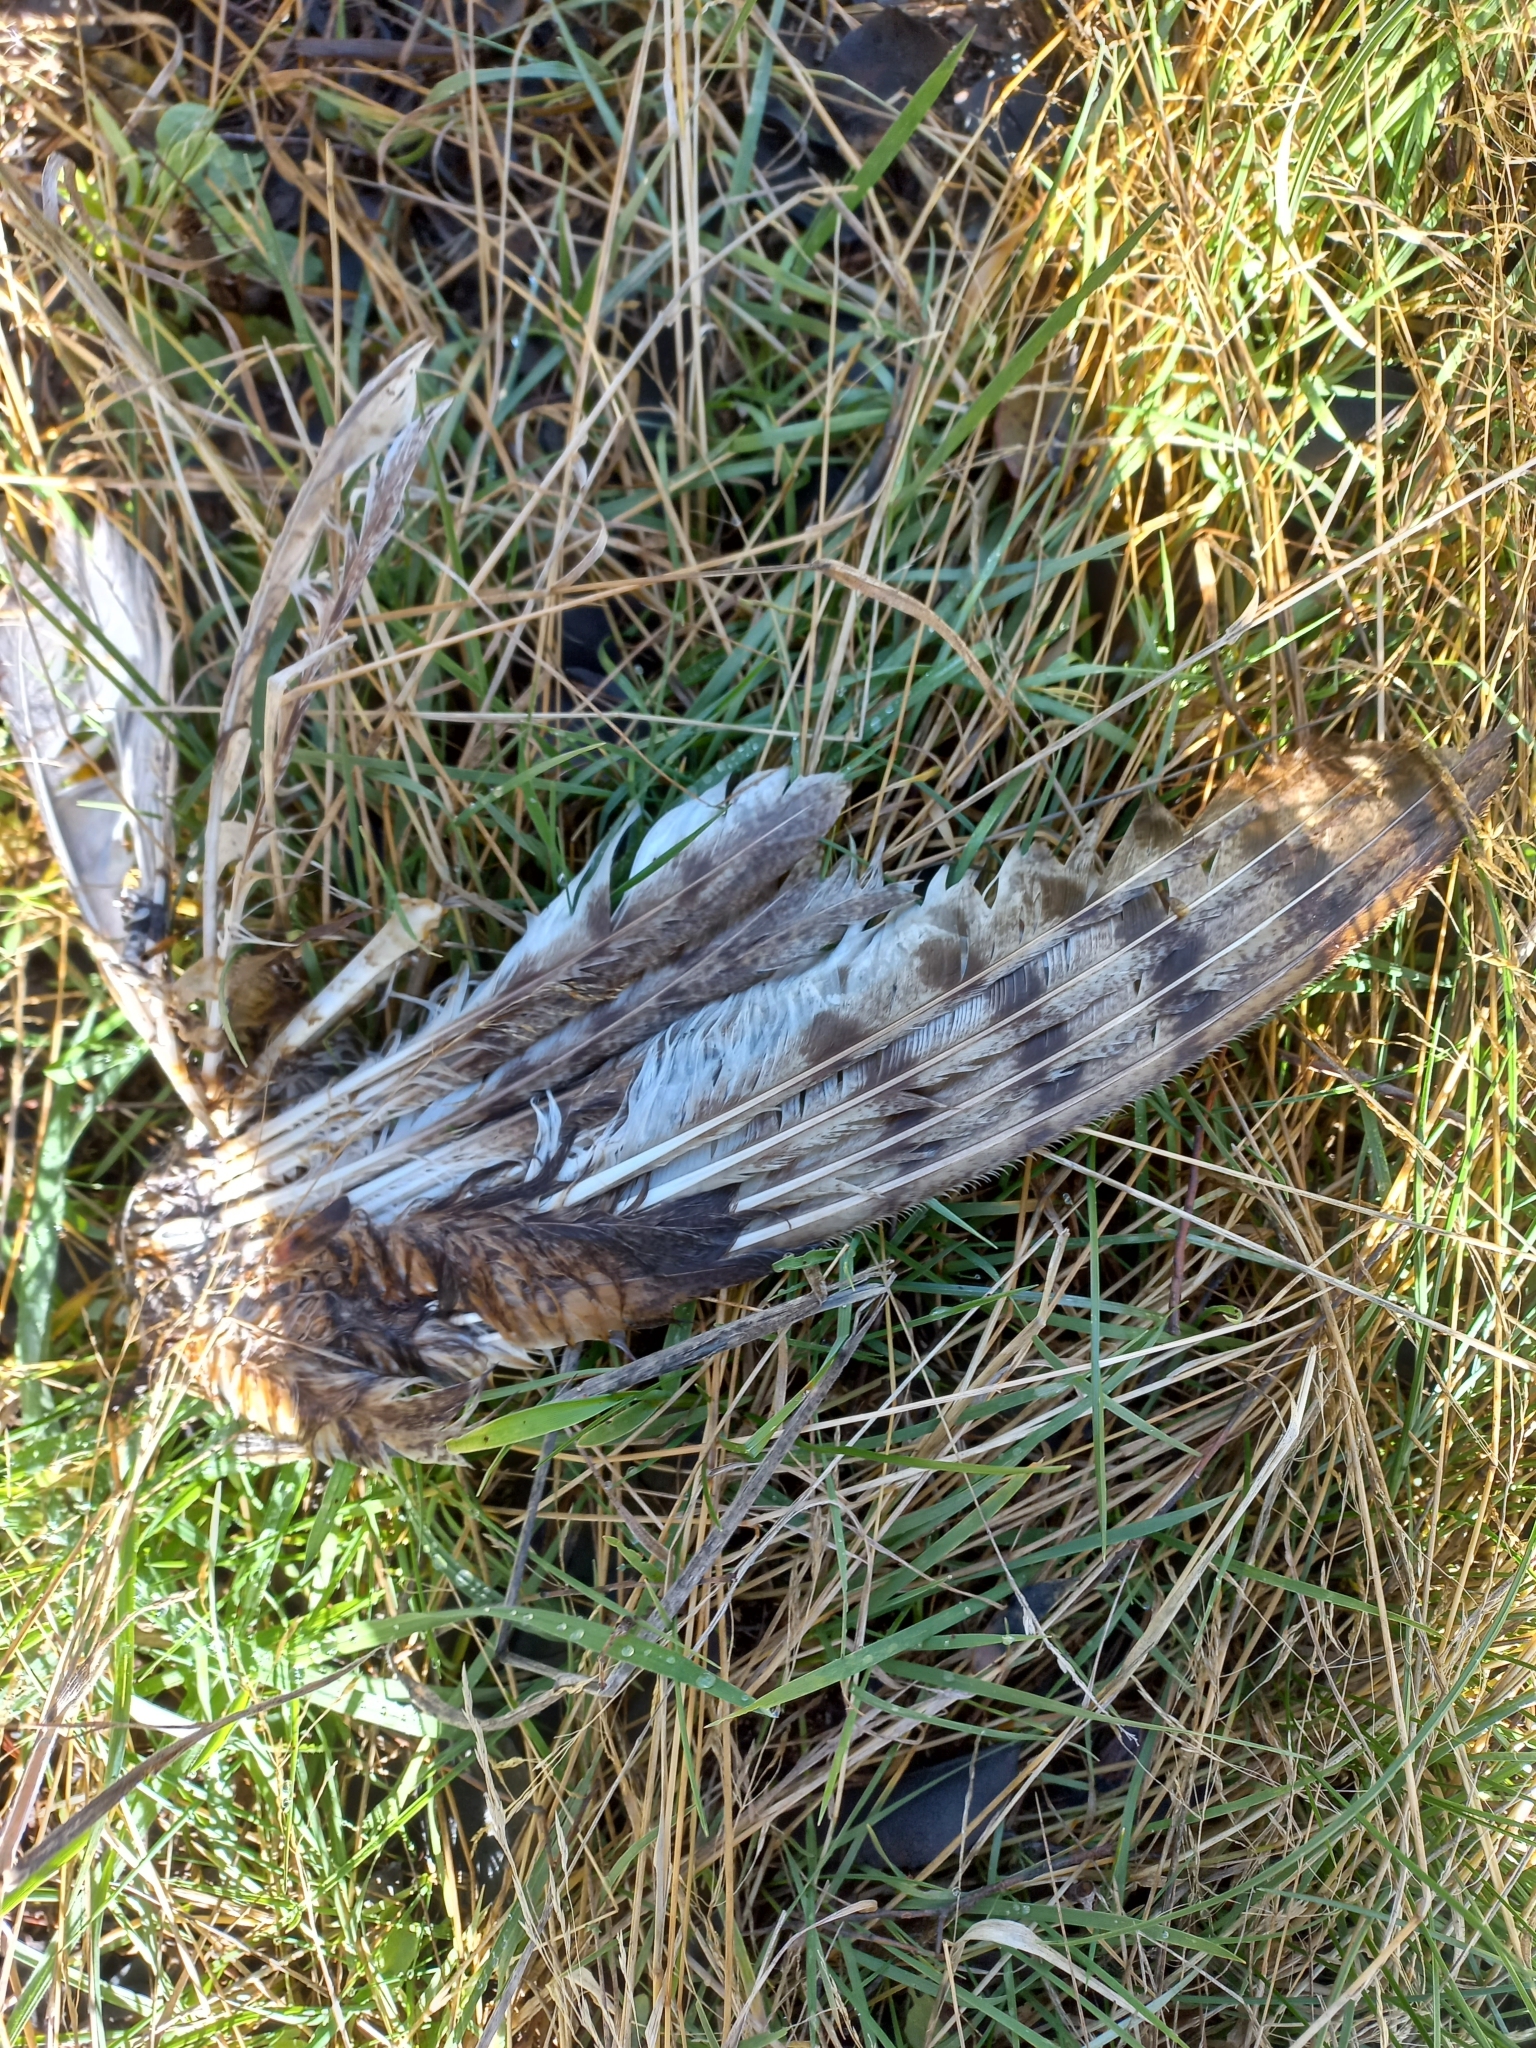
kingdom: Animalia
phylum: Chordata
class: Aves
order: Strigiformes
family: Tytonidae
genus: Tyto
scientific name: Tyto alba
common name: Barn owl
